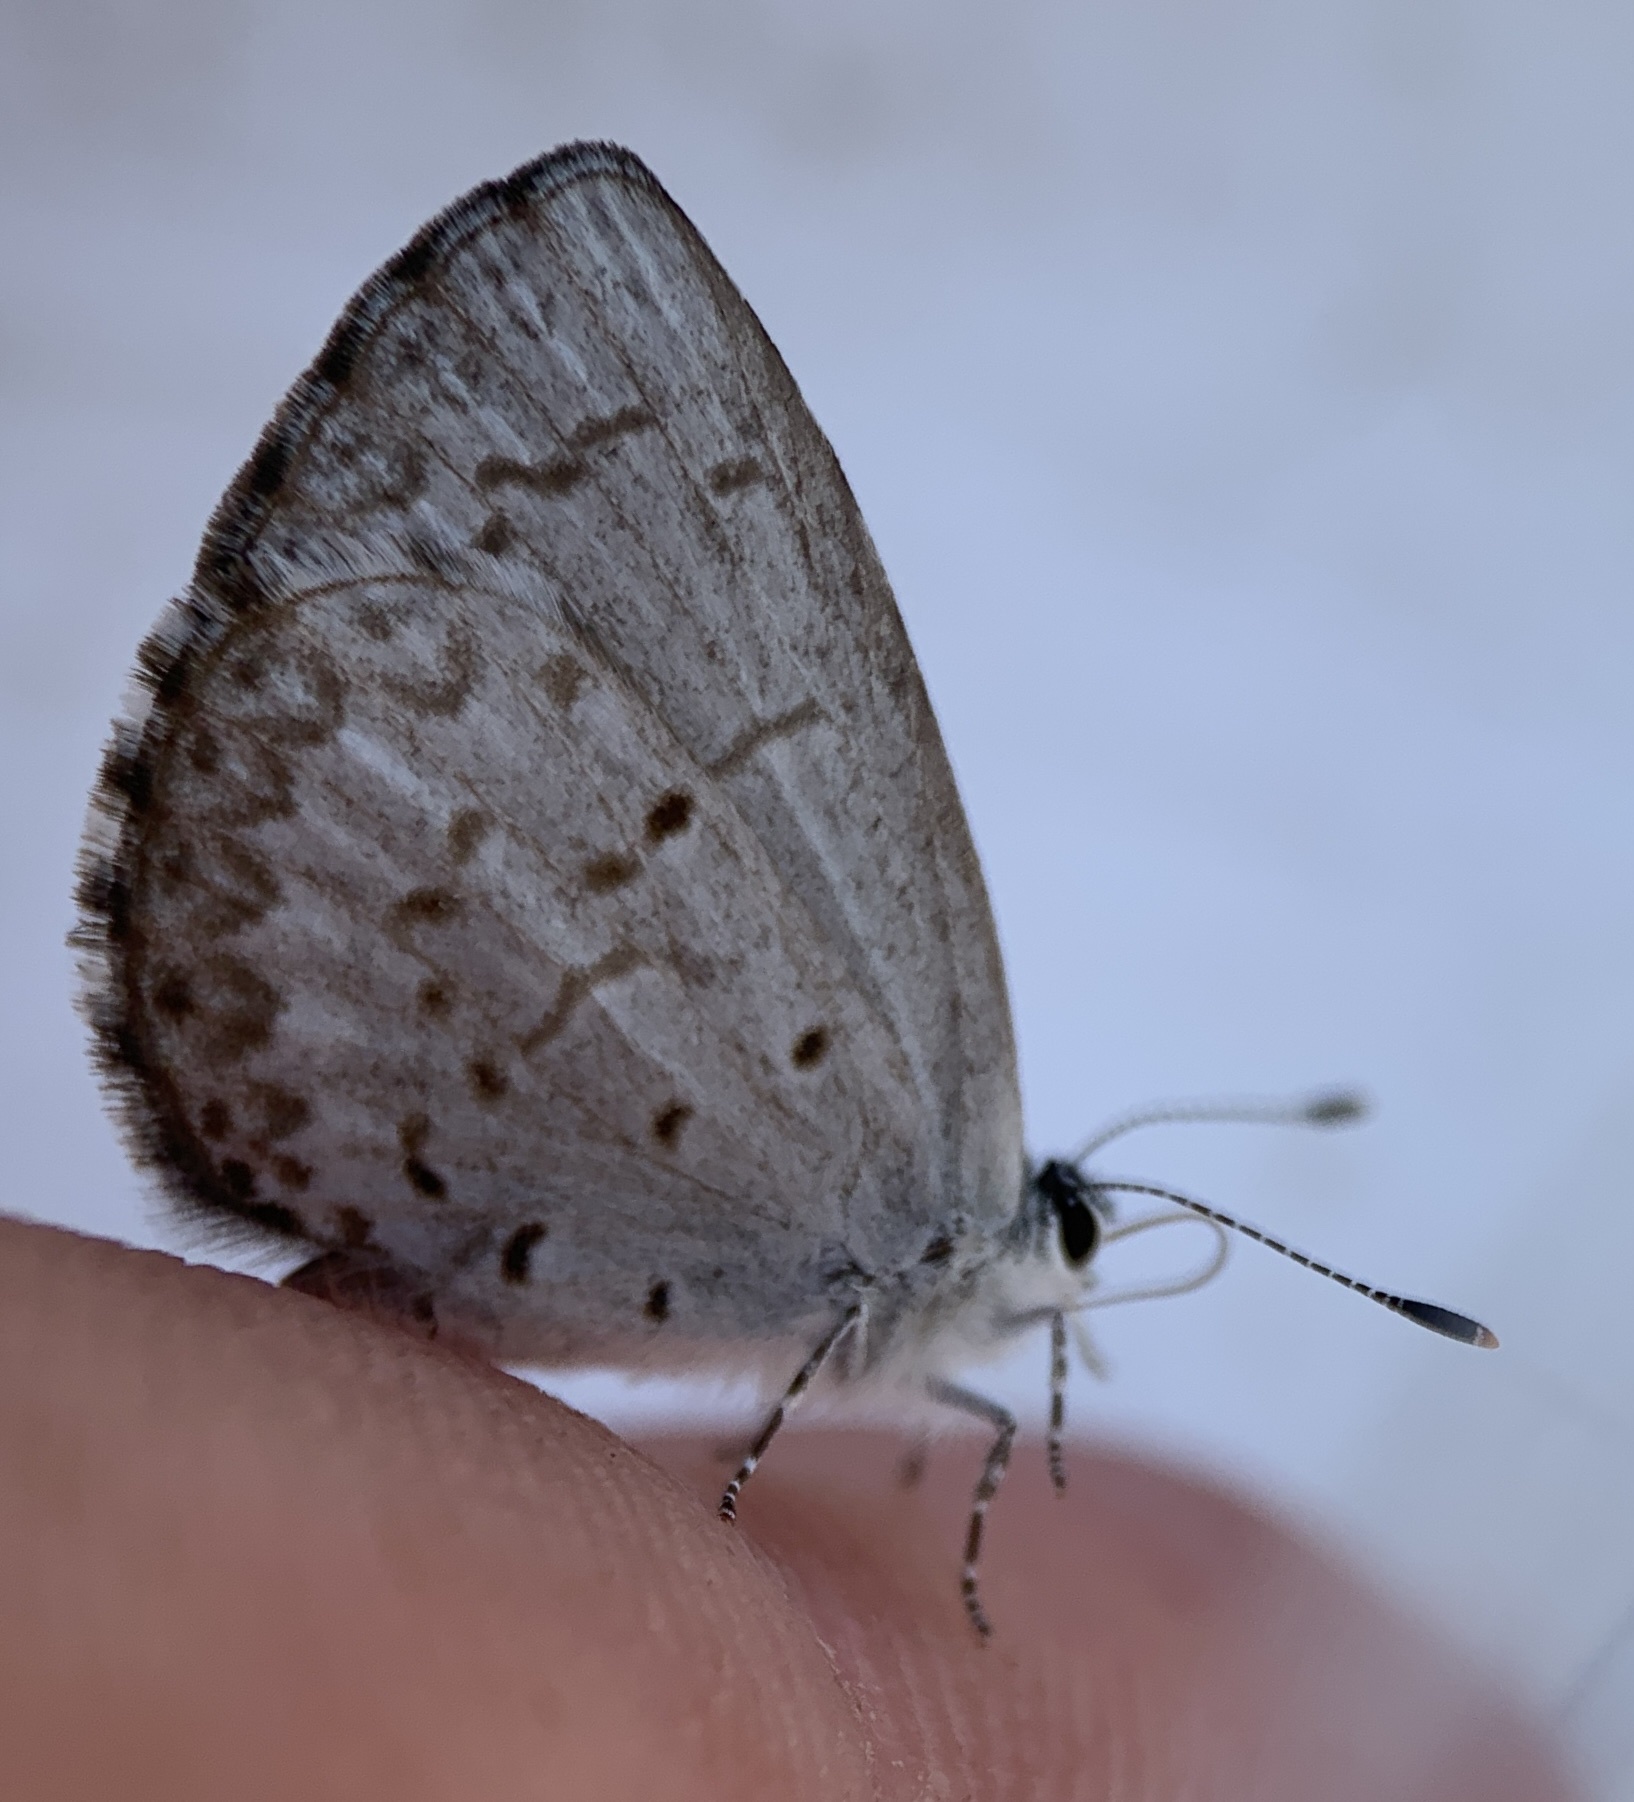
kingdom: Animalia
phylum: Arthropoda
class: Insecta
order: Lepidoptera
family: Lycaenidae
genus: Celastrina
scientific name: Celastrina ladon
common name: Spring azure
